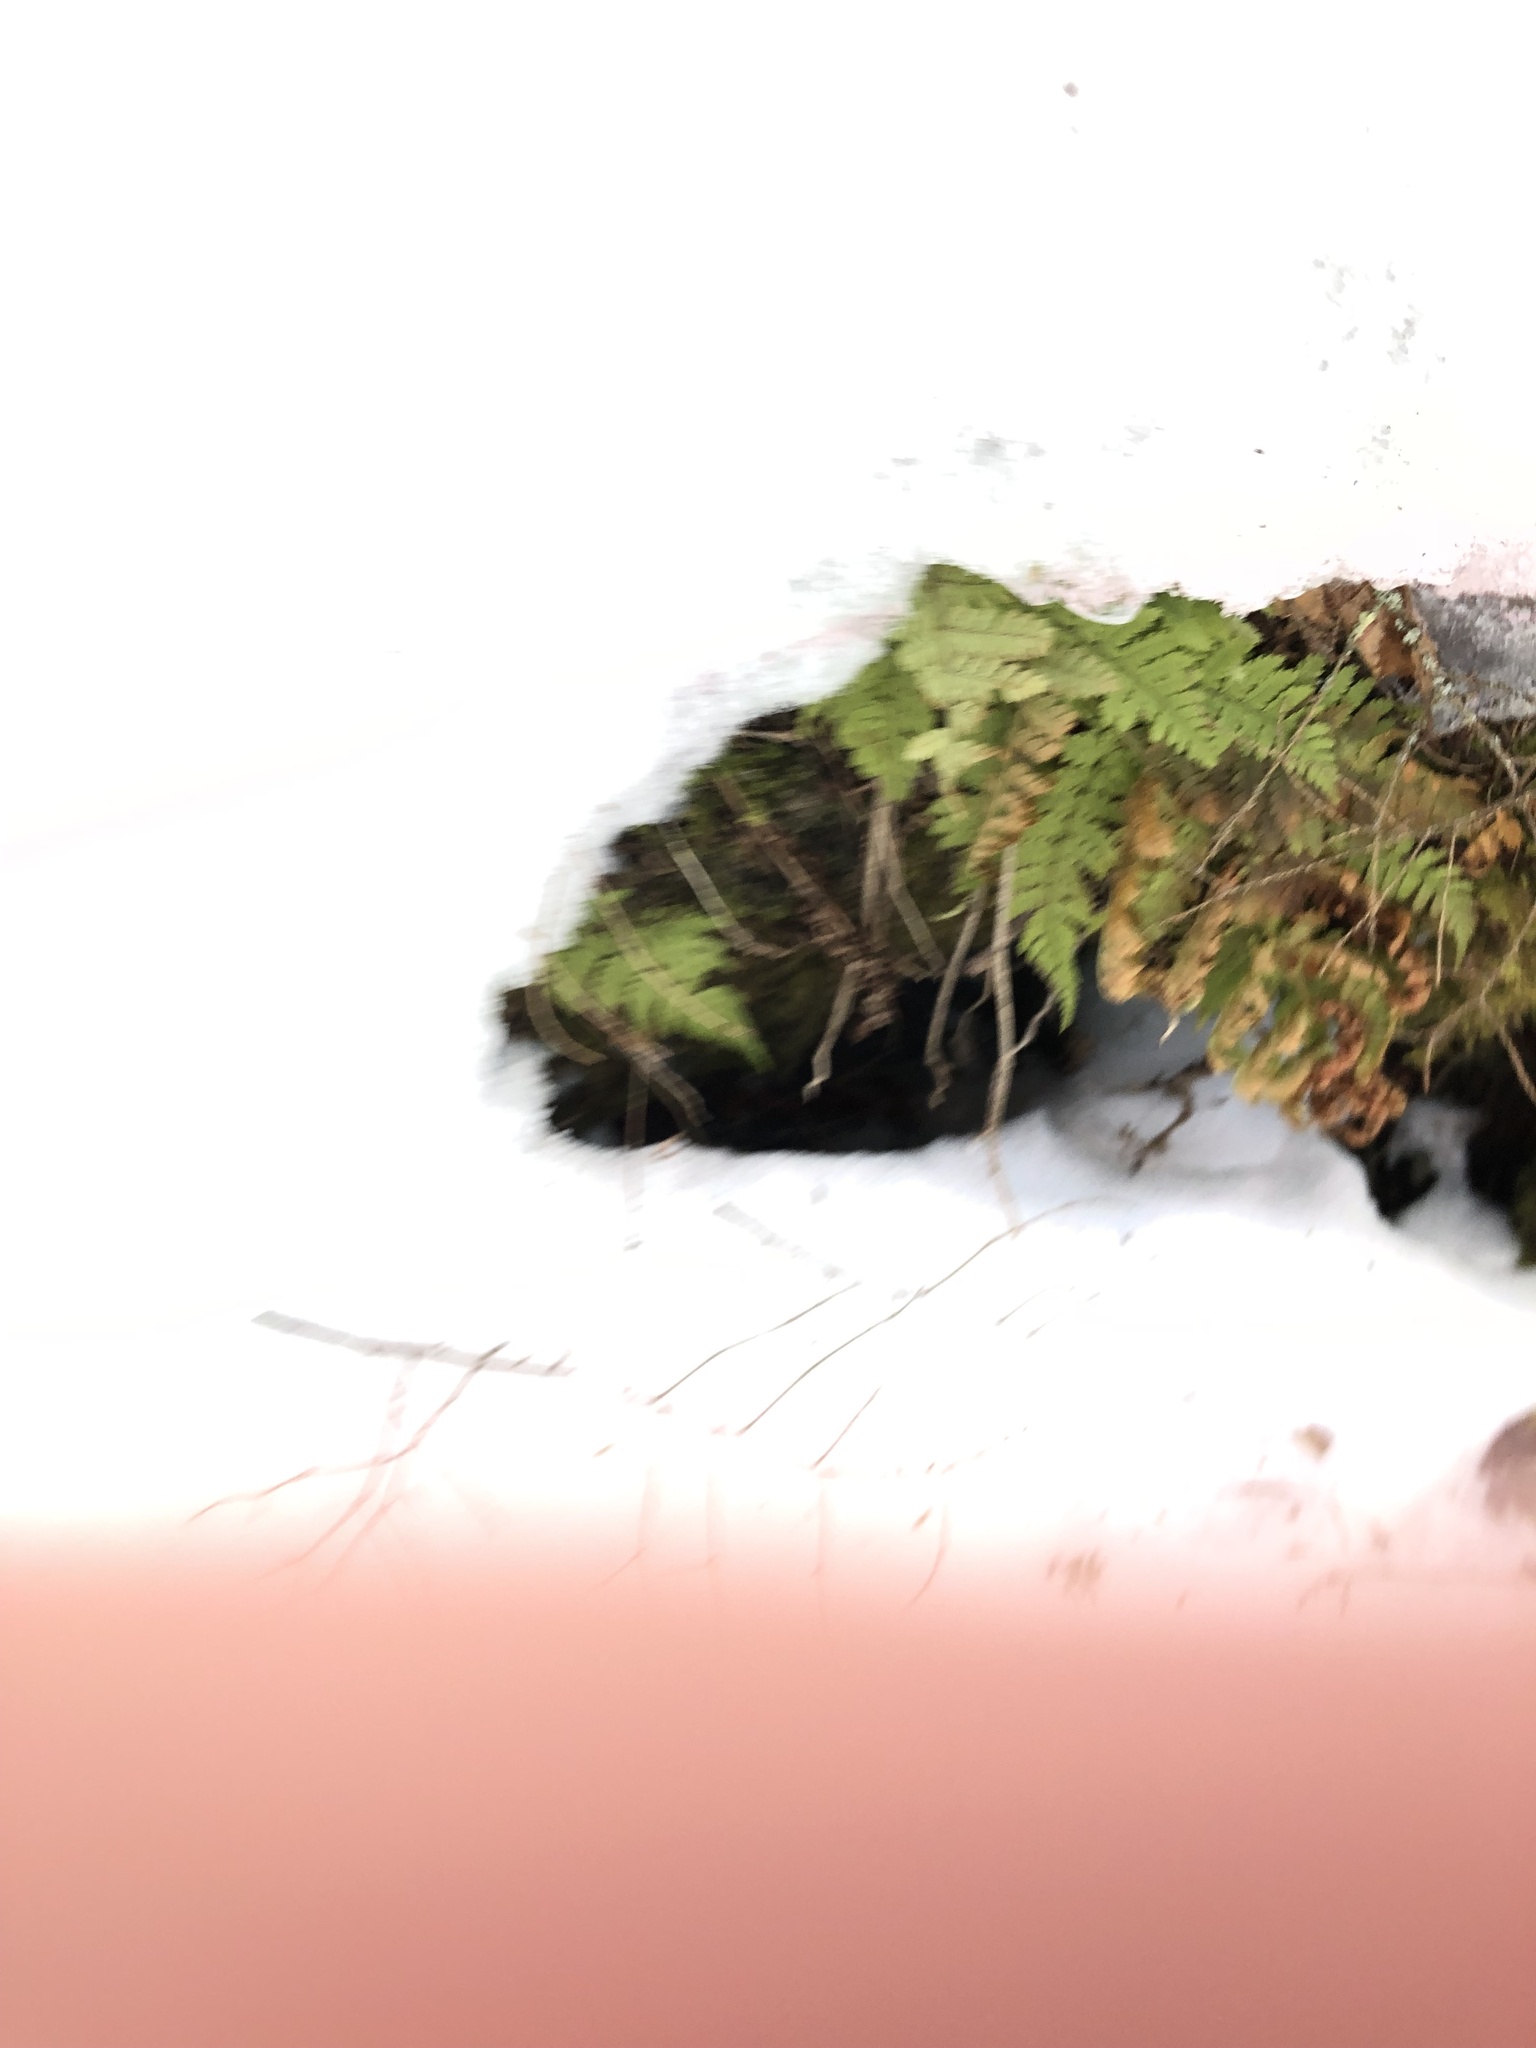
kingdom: Plantae
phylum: Tracheophyta
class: Polypodiopsida
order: Polypodiales
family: Dryopteridaceae
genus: Dryopteris
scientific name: Dryopteris intermedia
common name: Evergreen wood fern
